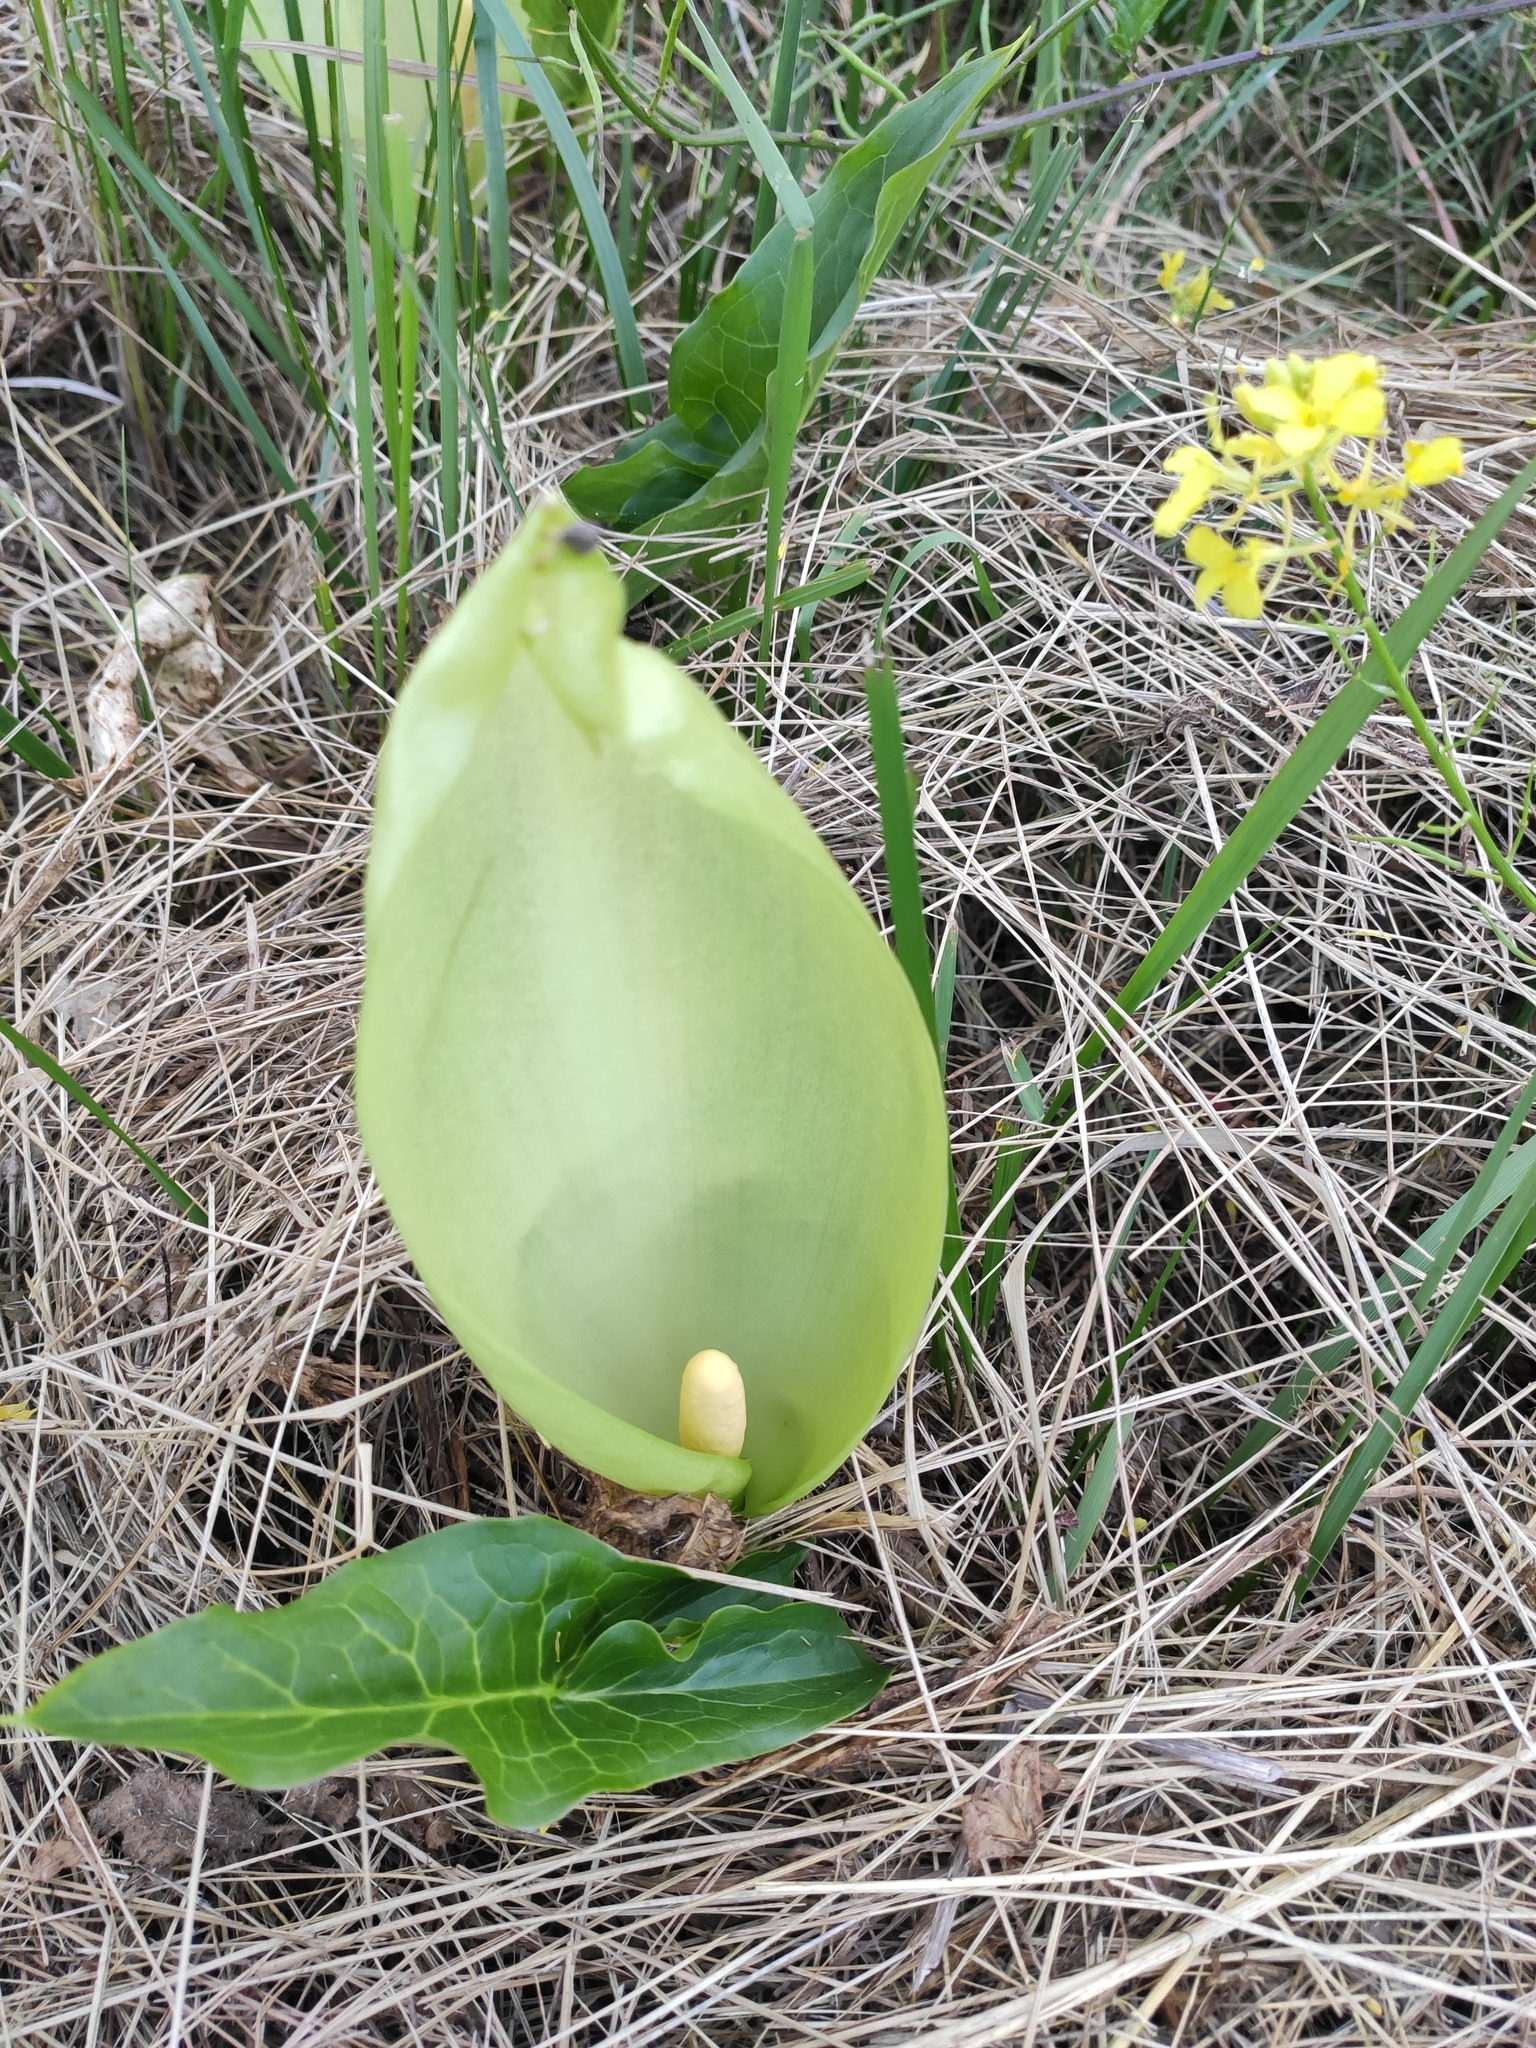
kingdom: Plantae
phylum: Tracheophyta
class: Liliopsida
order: Alismatales
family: Araceae
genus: Arum
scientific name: Arum italicum
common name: Italian lords-and-ladies
